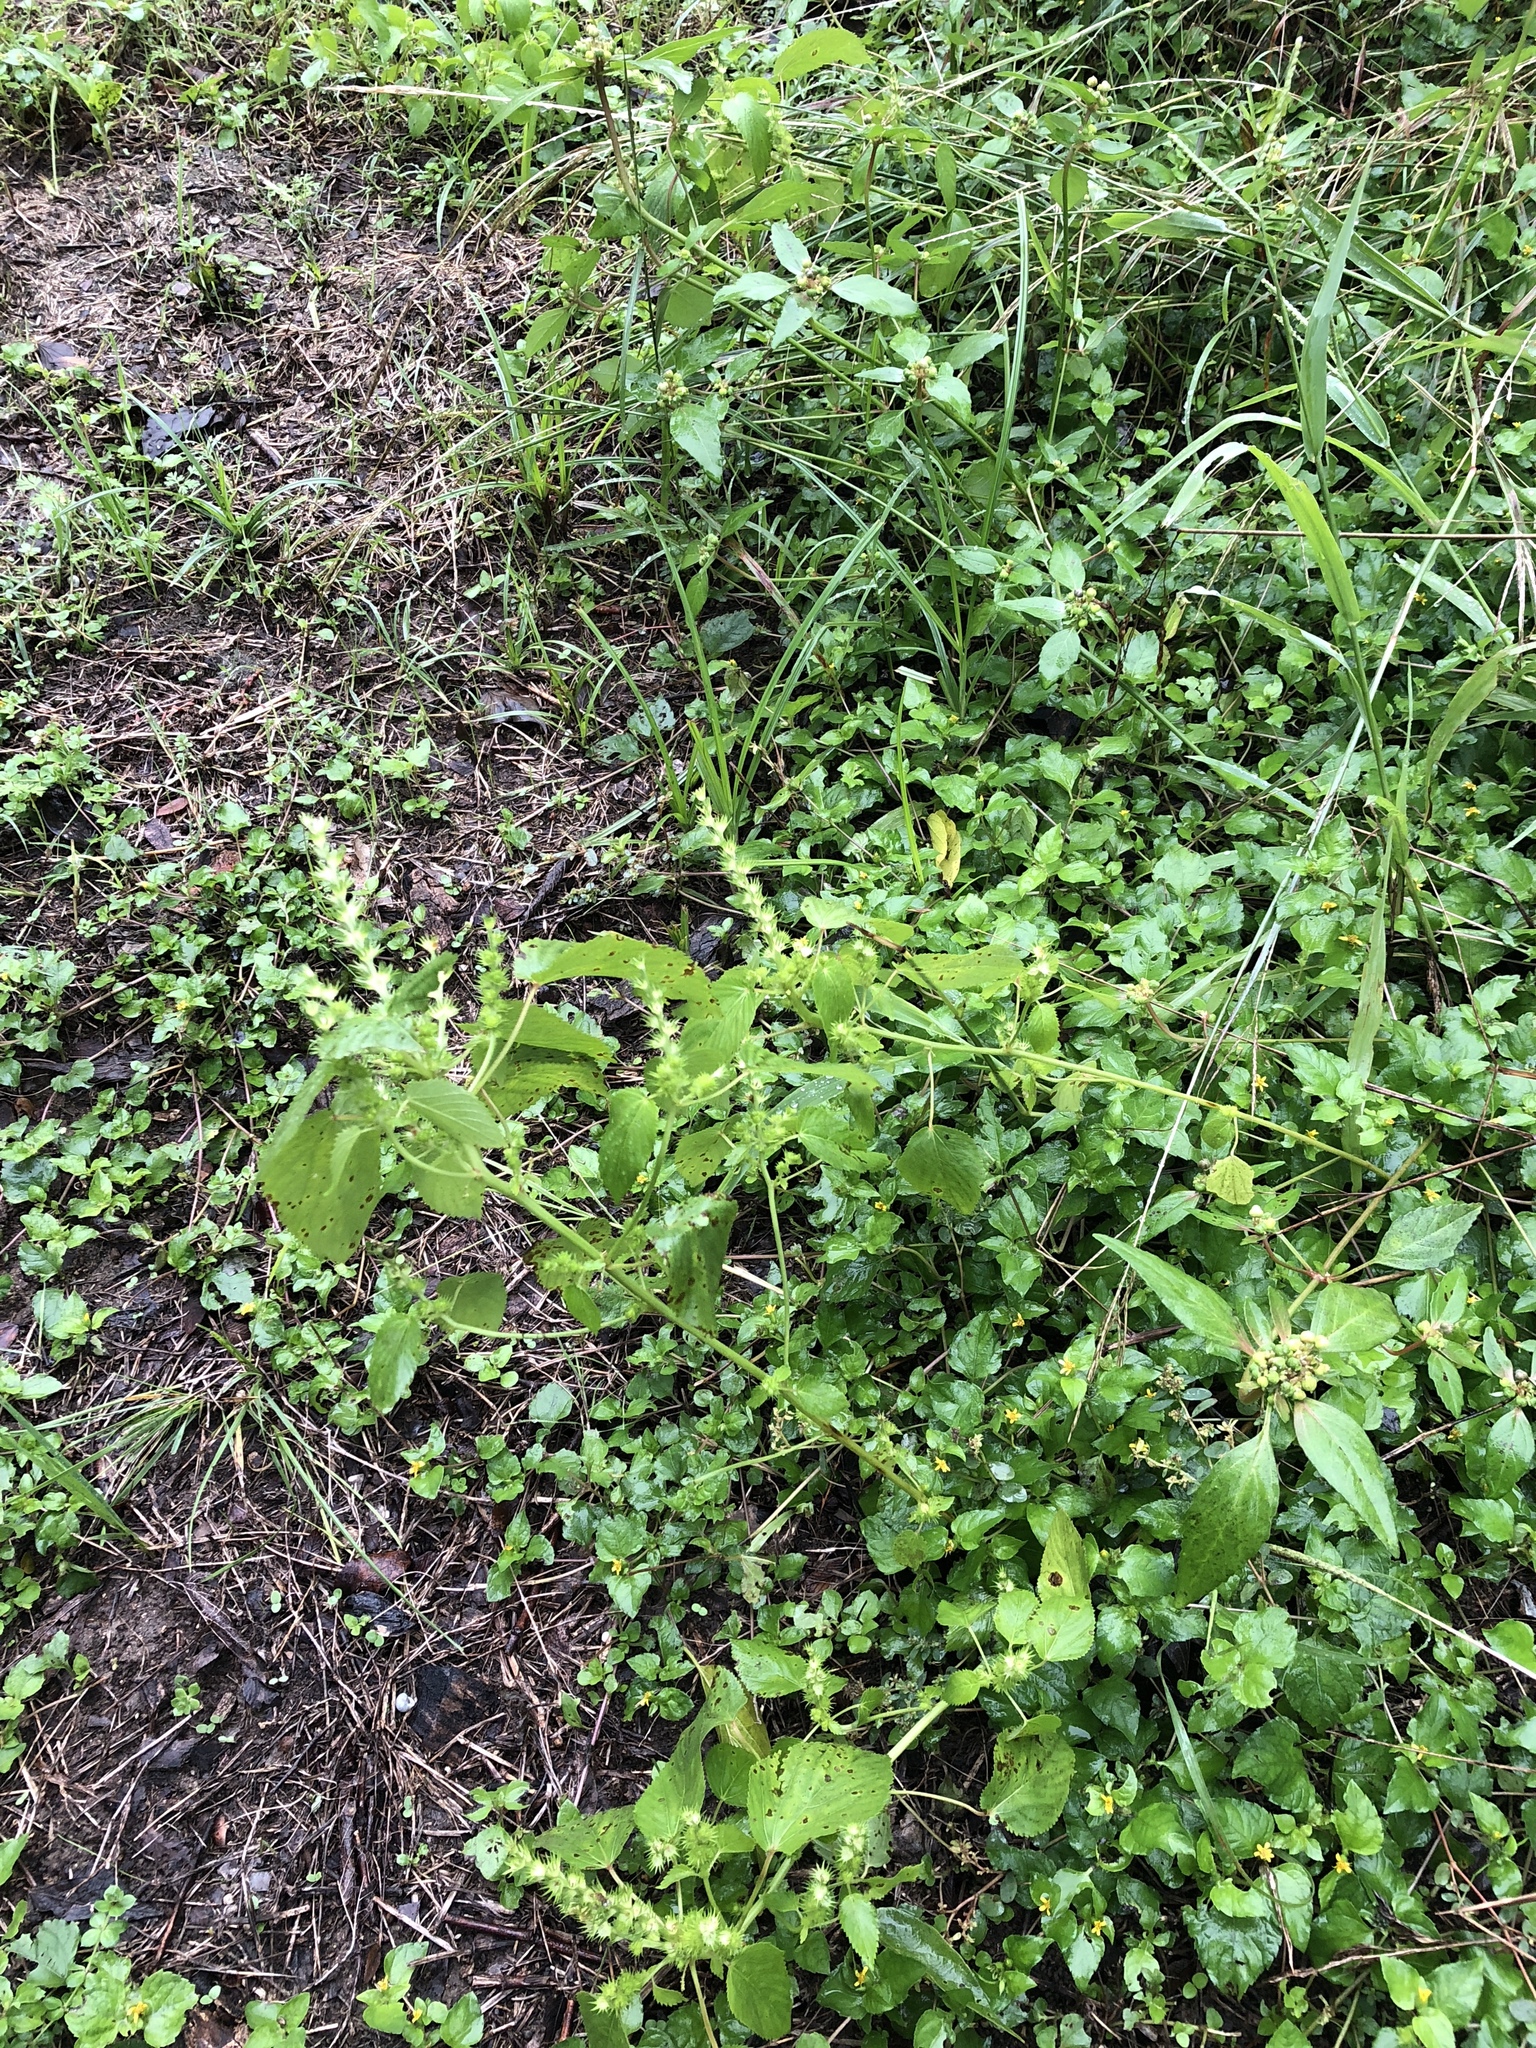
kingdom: Plantae
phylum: Tracheophyta
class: Magnoliopsida
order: Malpighiales
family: Euphorbiaceae
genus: Acalypha
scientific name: Acalypha ostryifolia
